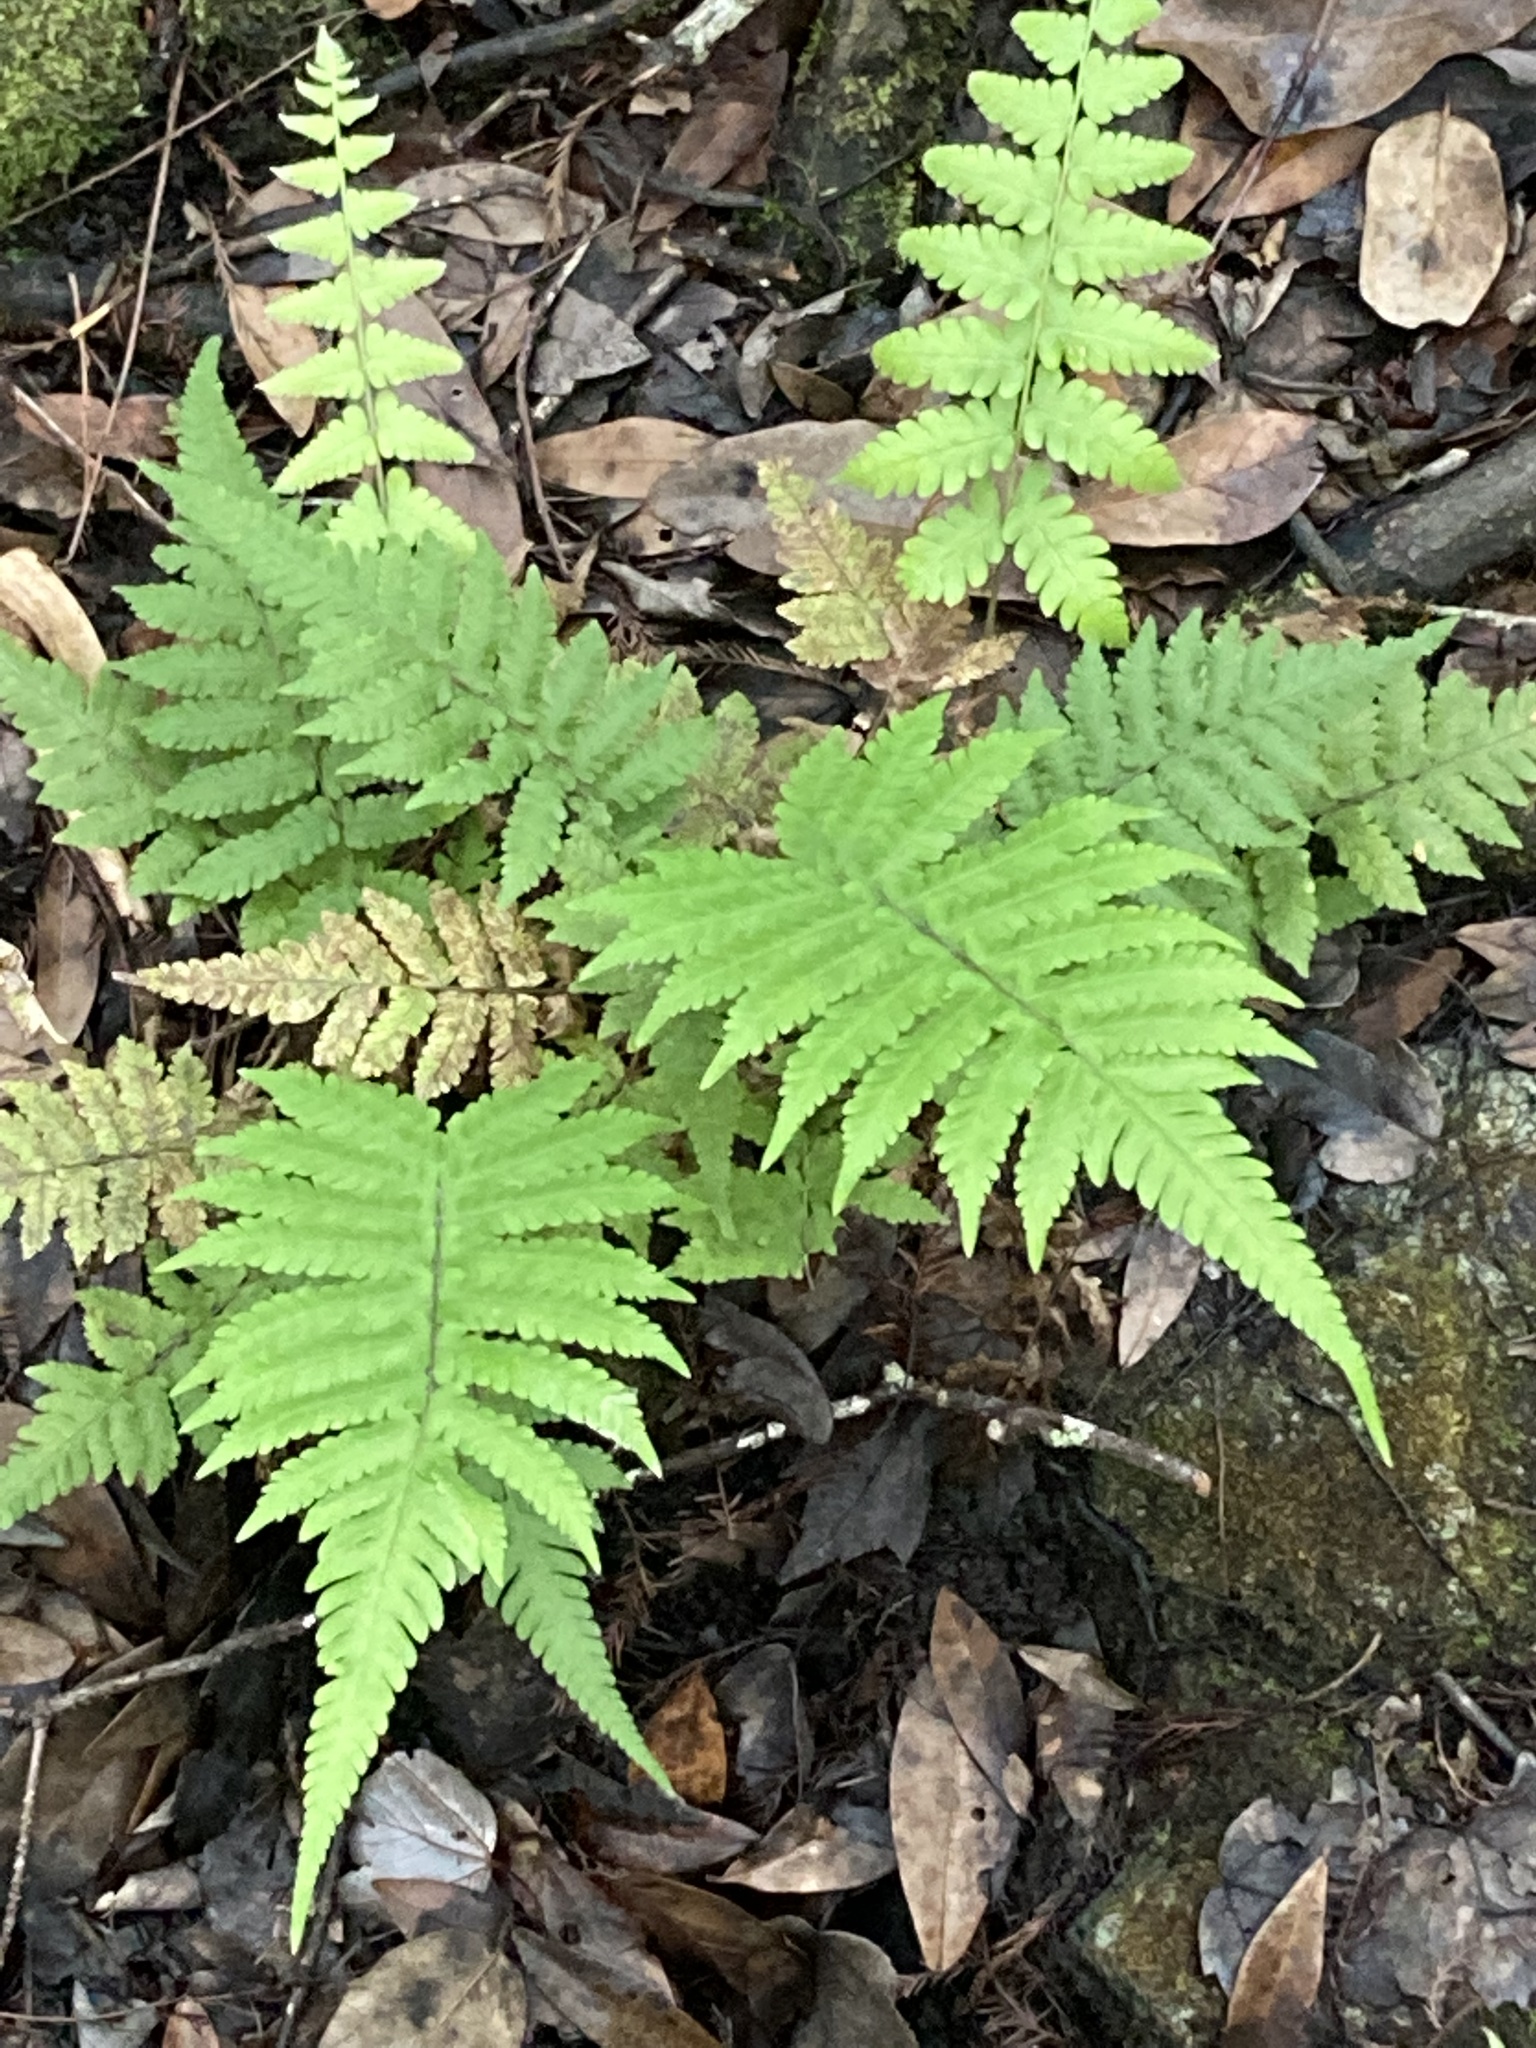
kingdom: Plantae
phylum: Tracheophyta
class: Polypodiopsida
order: Polypodiales
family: Thelypteridaceae
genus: Christella
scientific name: Christella dentata
